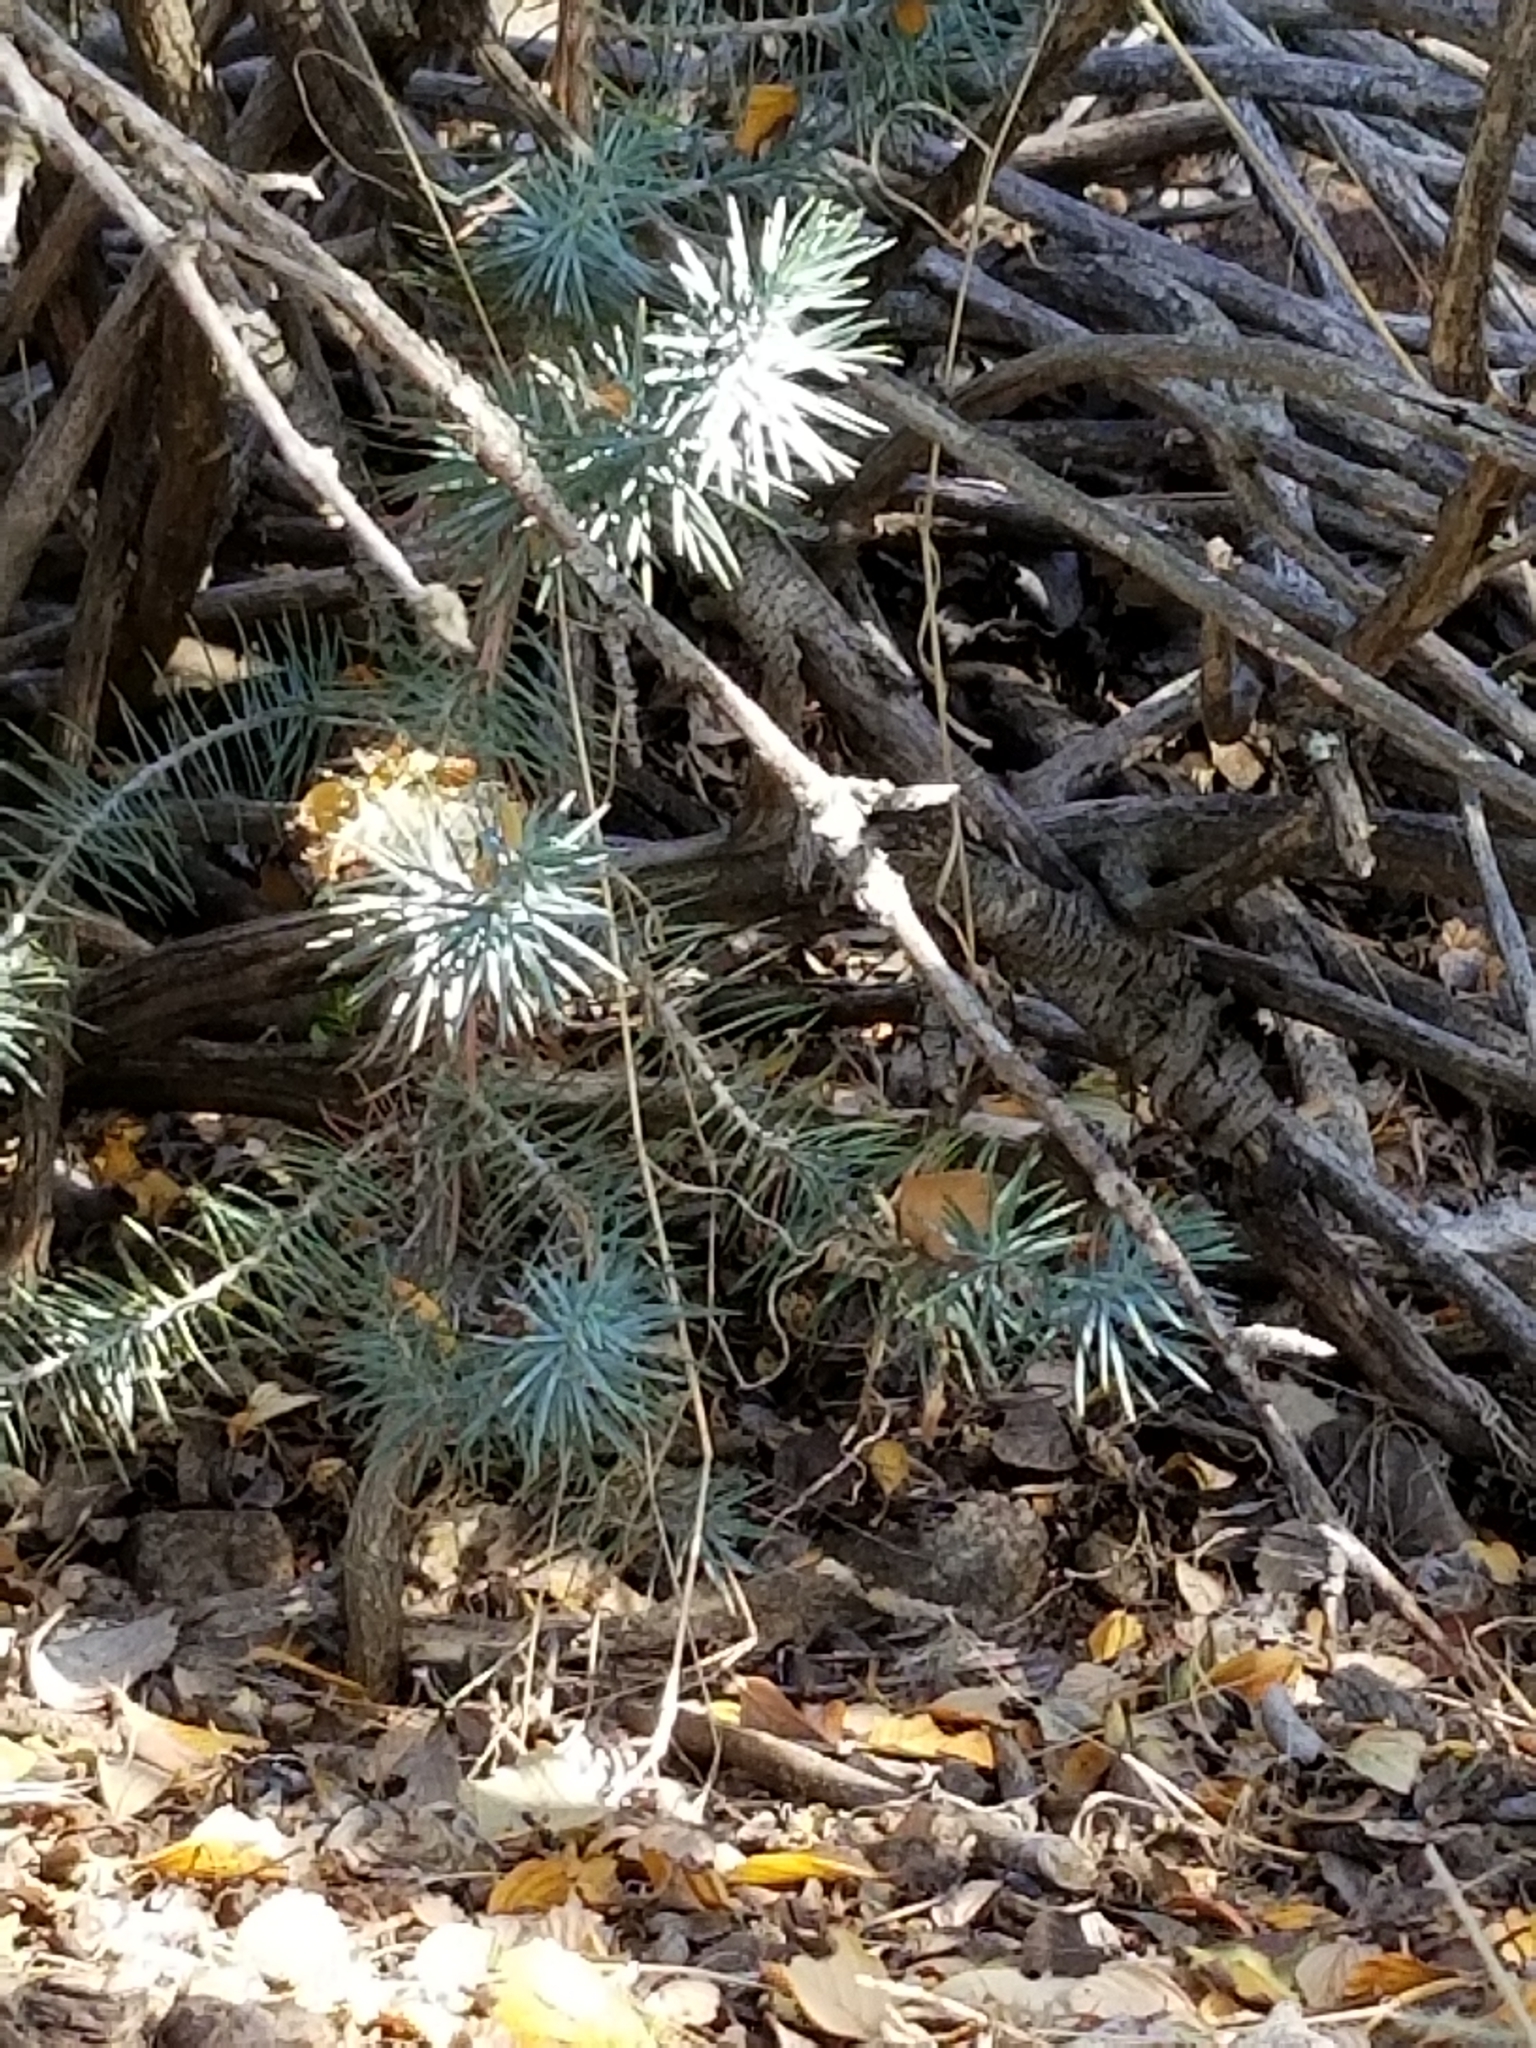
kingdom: Plantae
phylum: Tracheophyta
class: Pinopsida
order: Pinales
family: Pinaceae
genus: Pinus
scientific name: Pinus quadrifolia
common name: Parry pinyon
